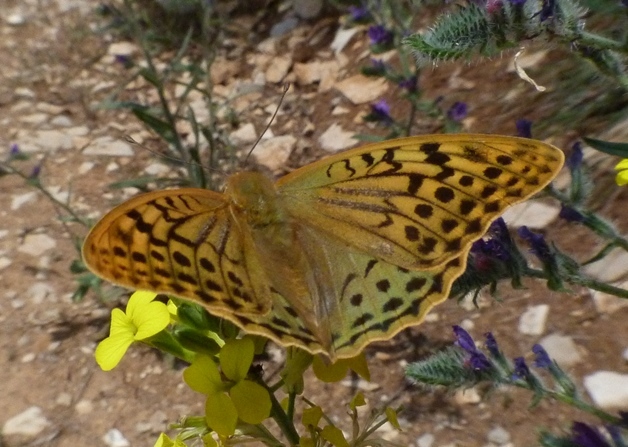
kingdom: Animalia
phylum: Arthropoda
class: Insecta
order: Lepidoptera
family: Nymphalidae
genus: Damora
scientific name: Damora pandora
